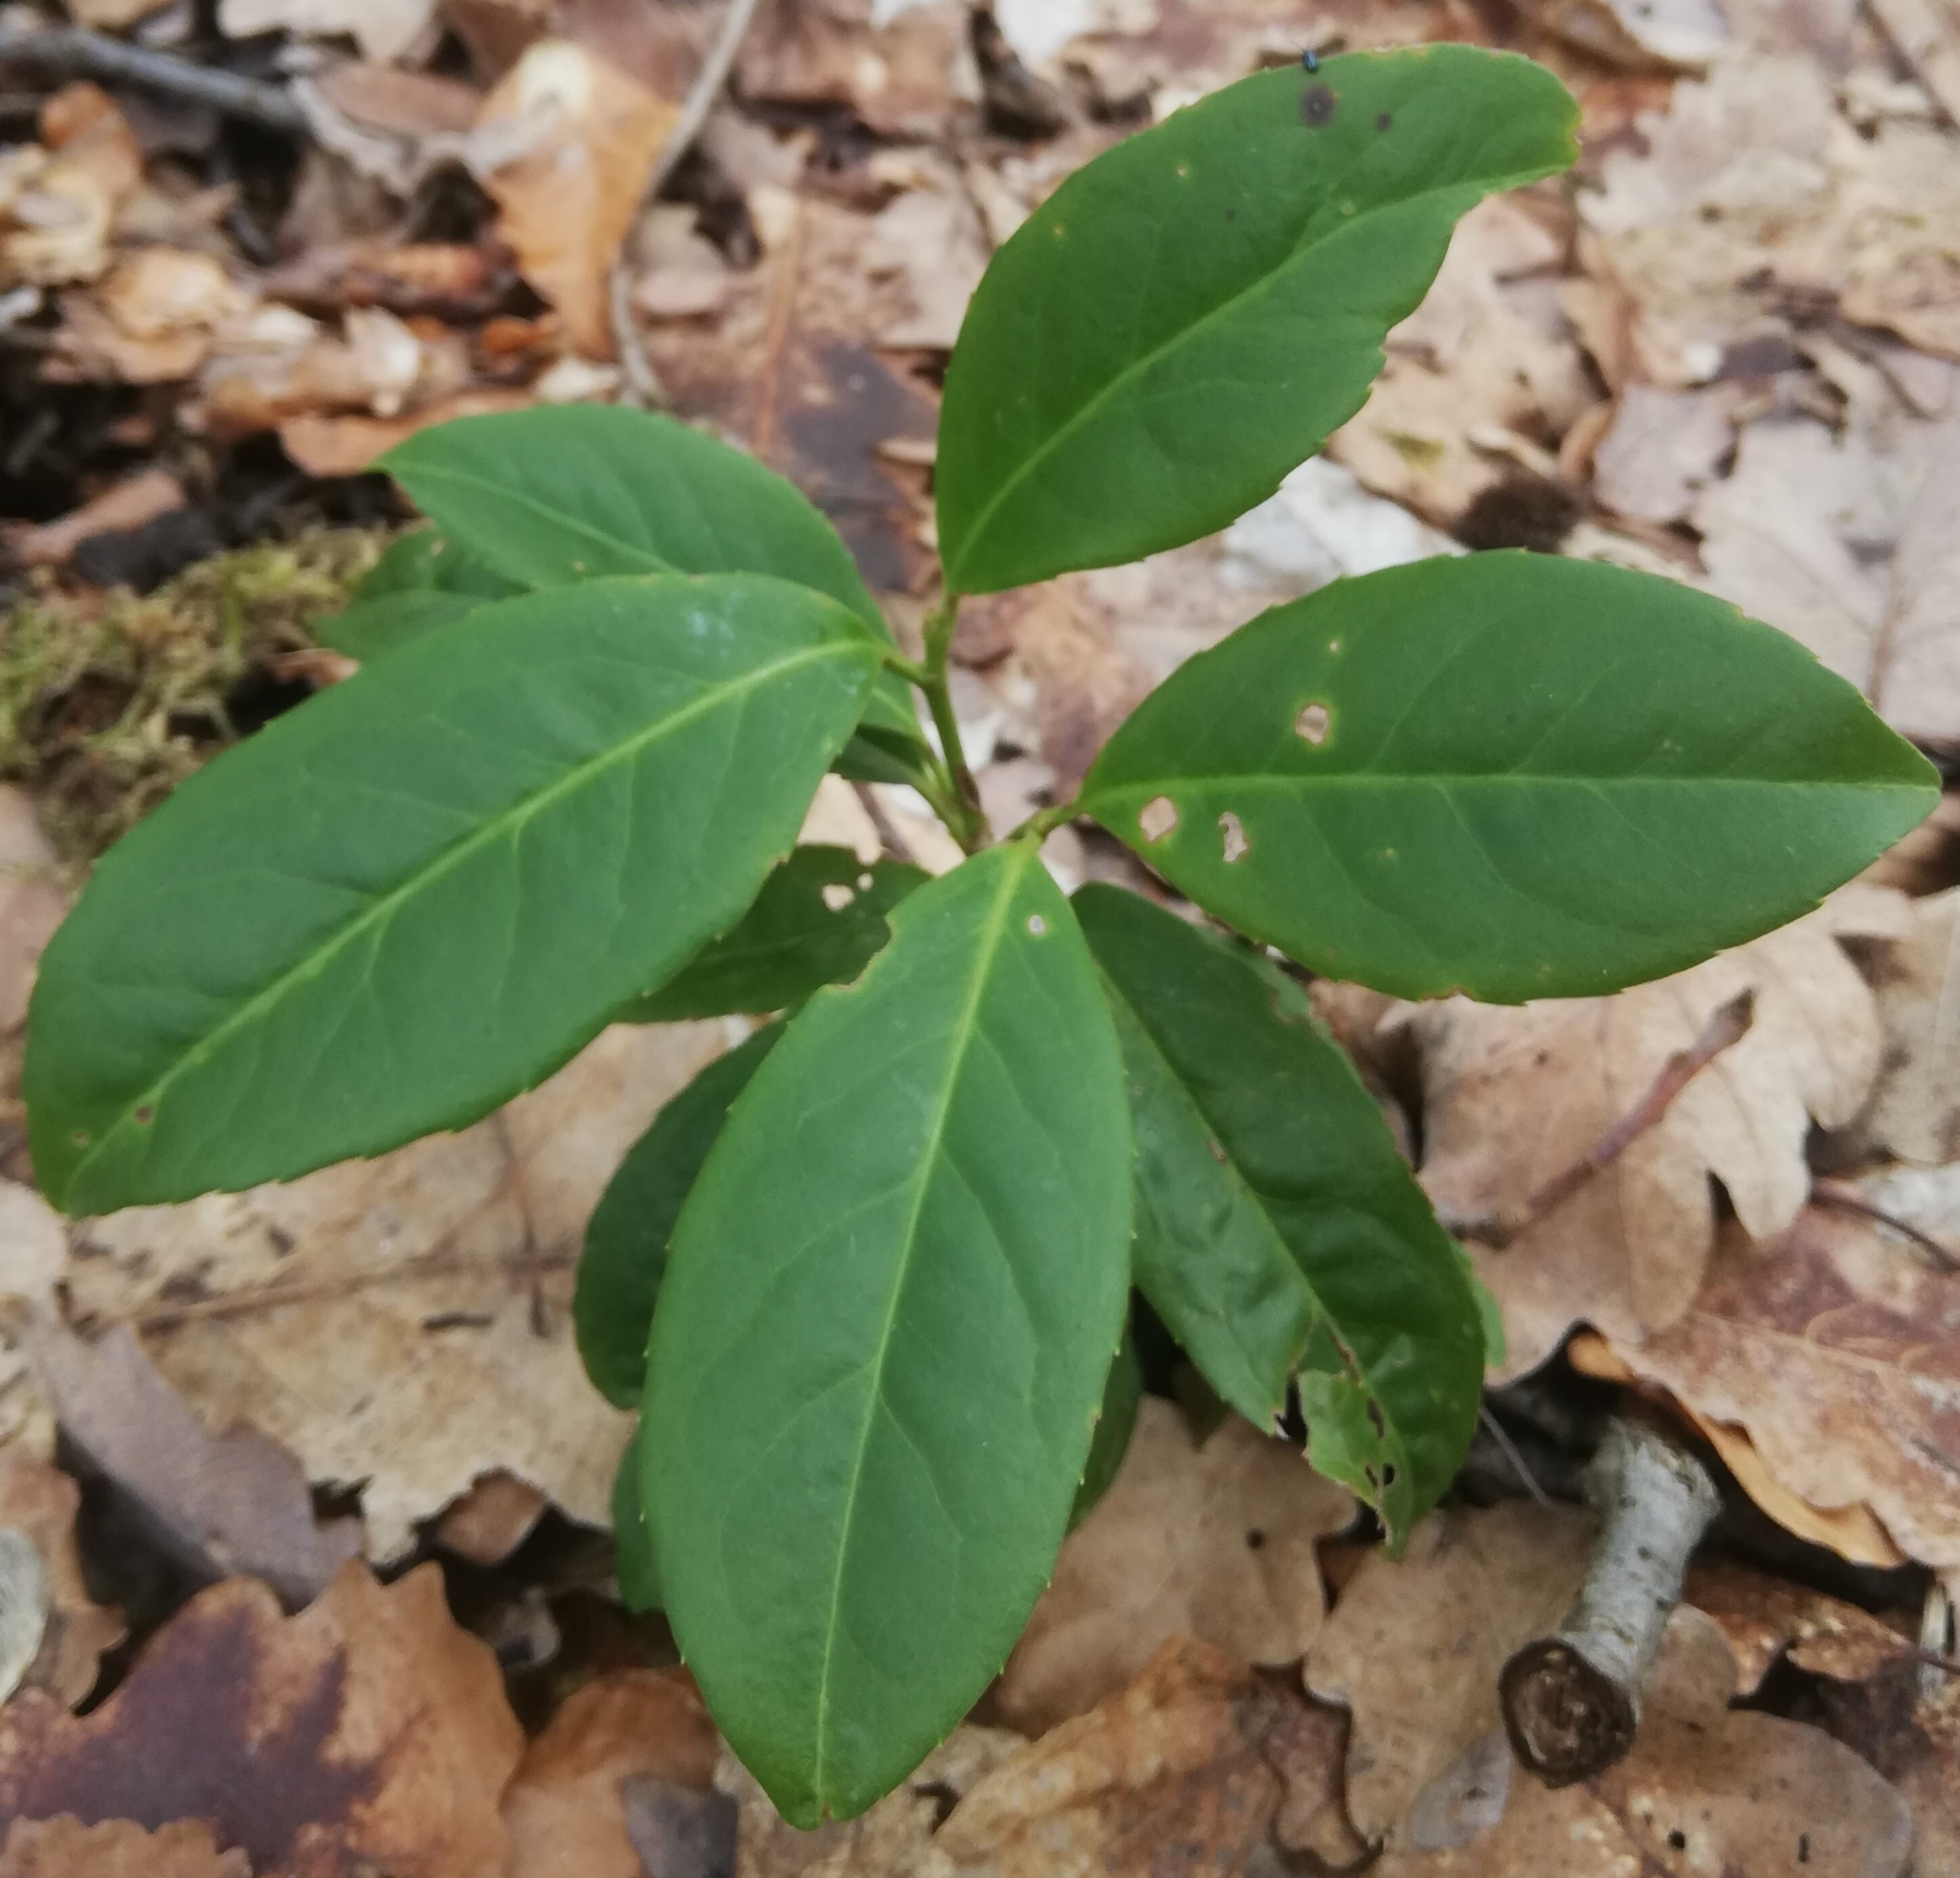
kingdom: Plantae
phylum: Tracheophyta
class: Magnoliopsida
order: Rosales
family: Rosaceae
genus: Prunus
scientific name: Prunus laurocerasus
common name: Cherry laurel
